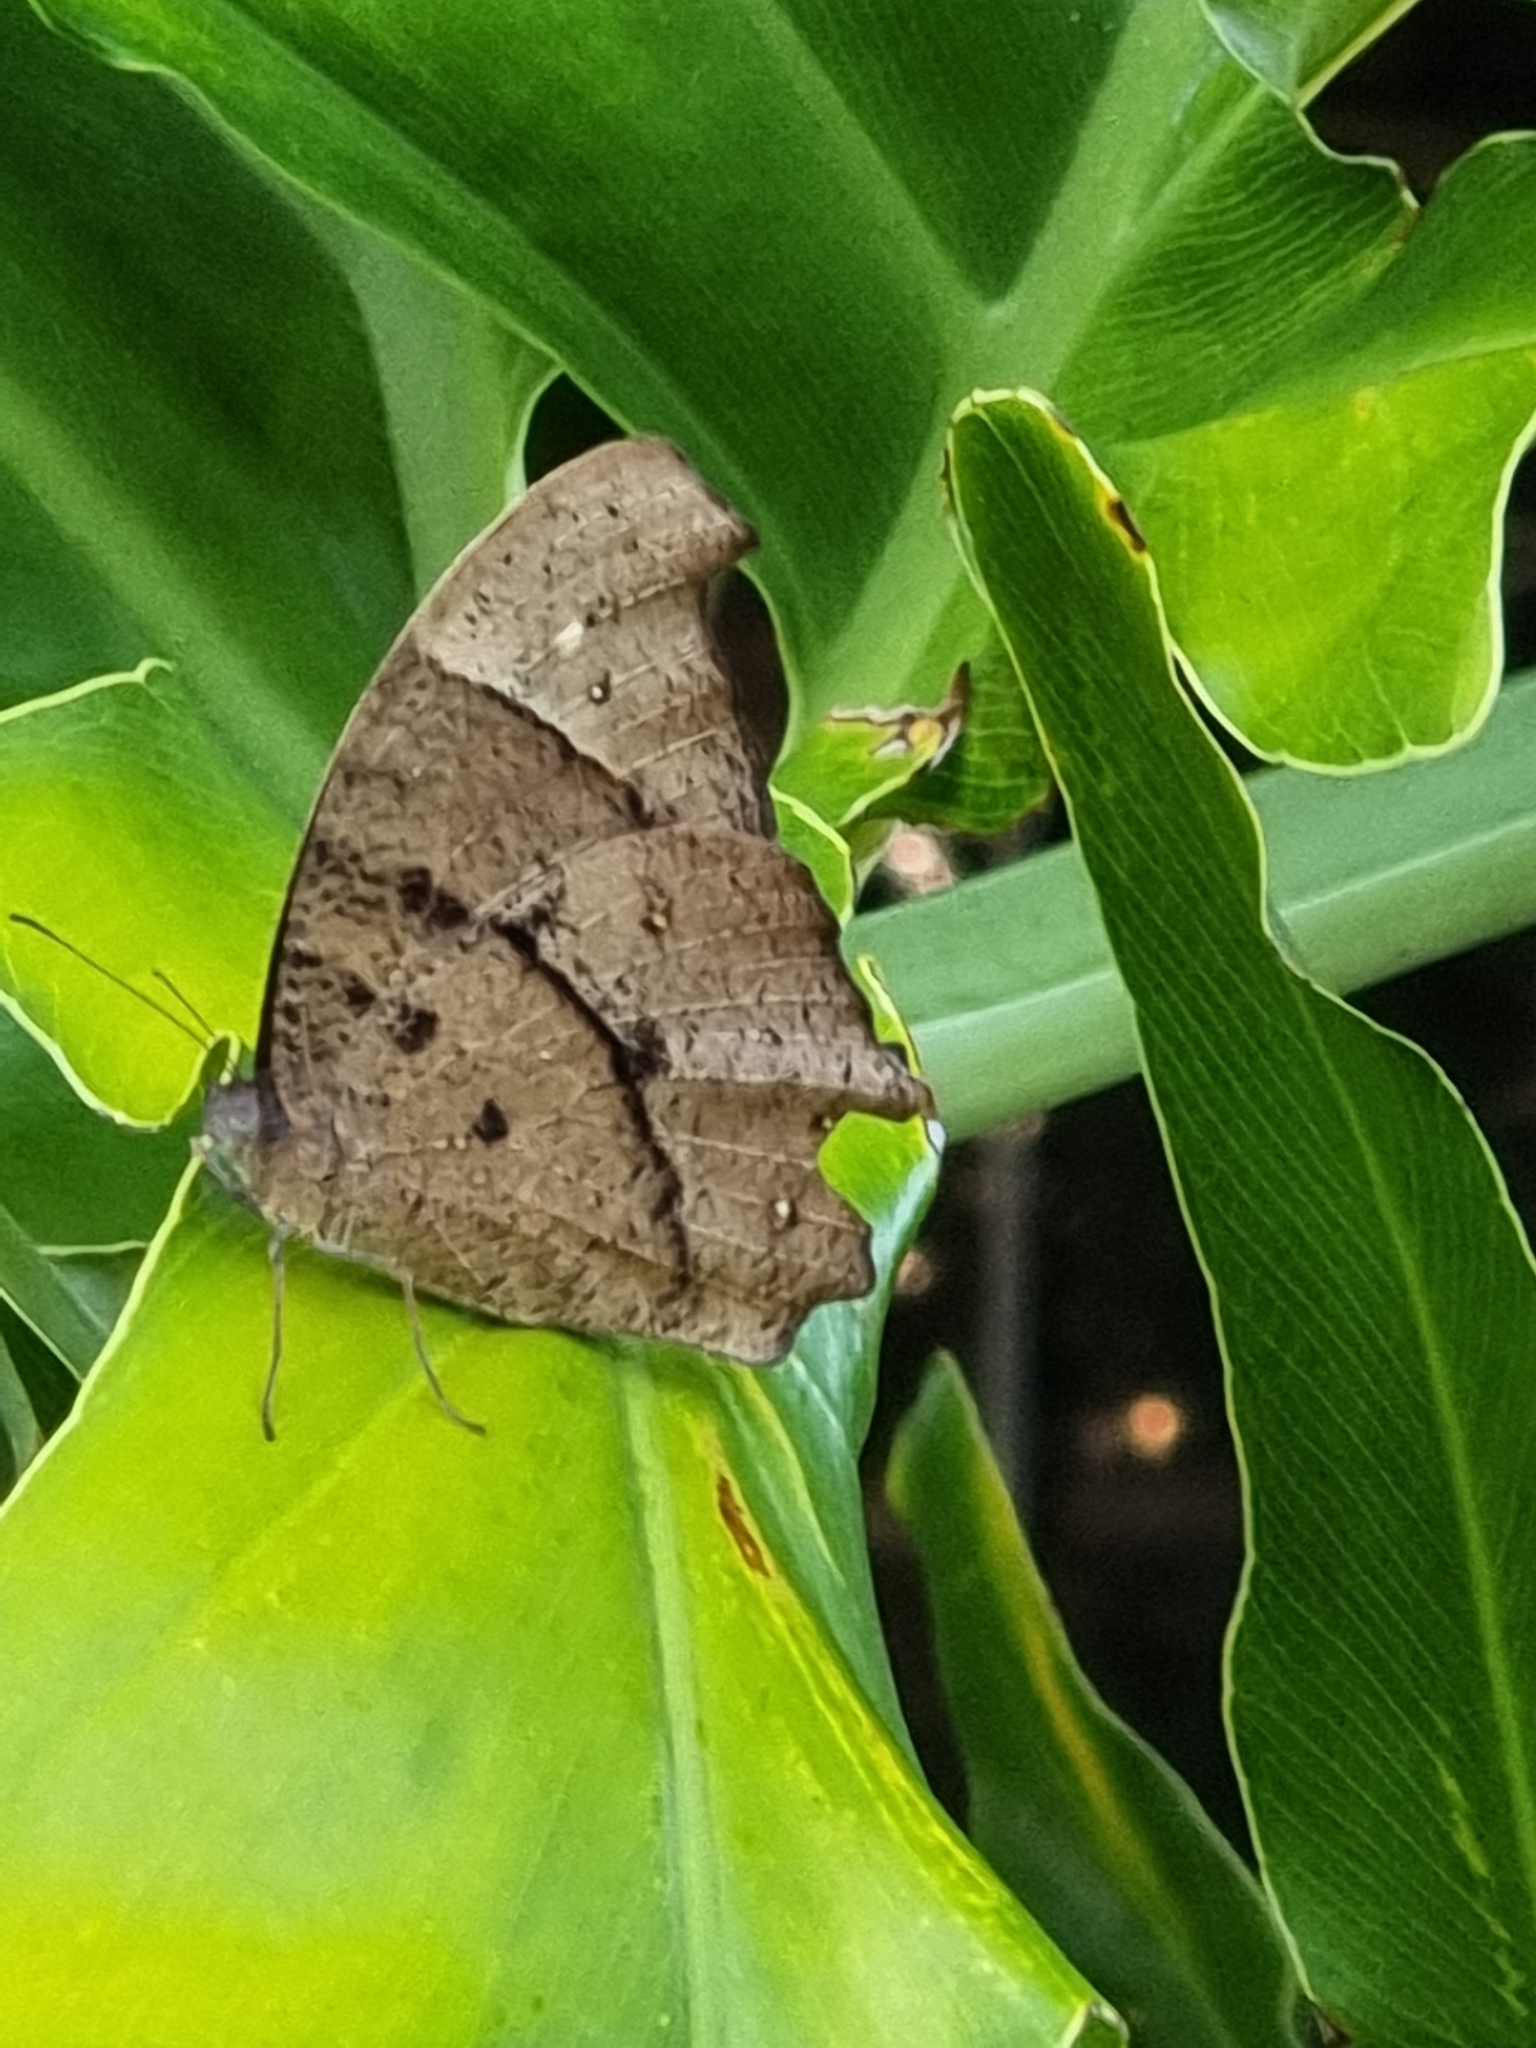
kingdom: Animalia
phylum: Arthropoda
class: Insecta
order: Lepidoptera
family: Nymphalidae
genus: Melanitis
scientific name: Melanitis leda
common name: Twilight brown
